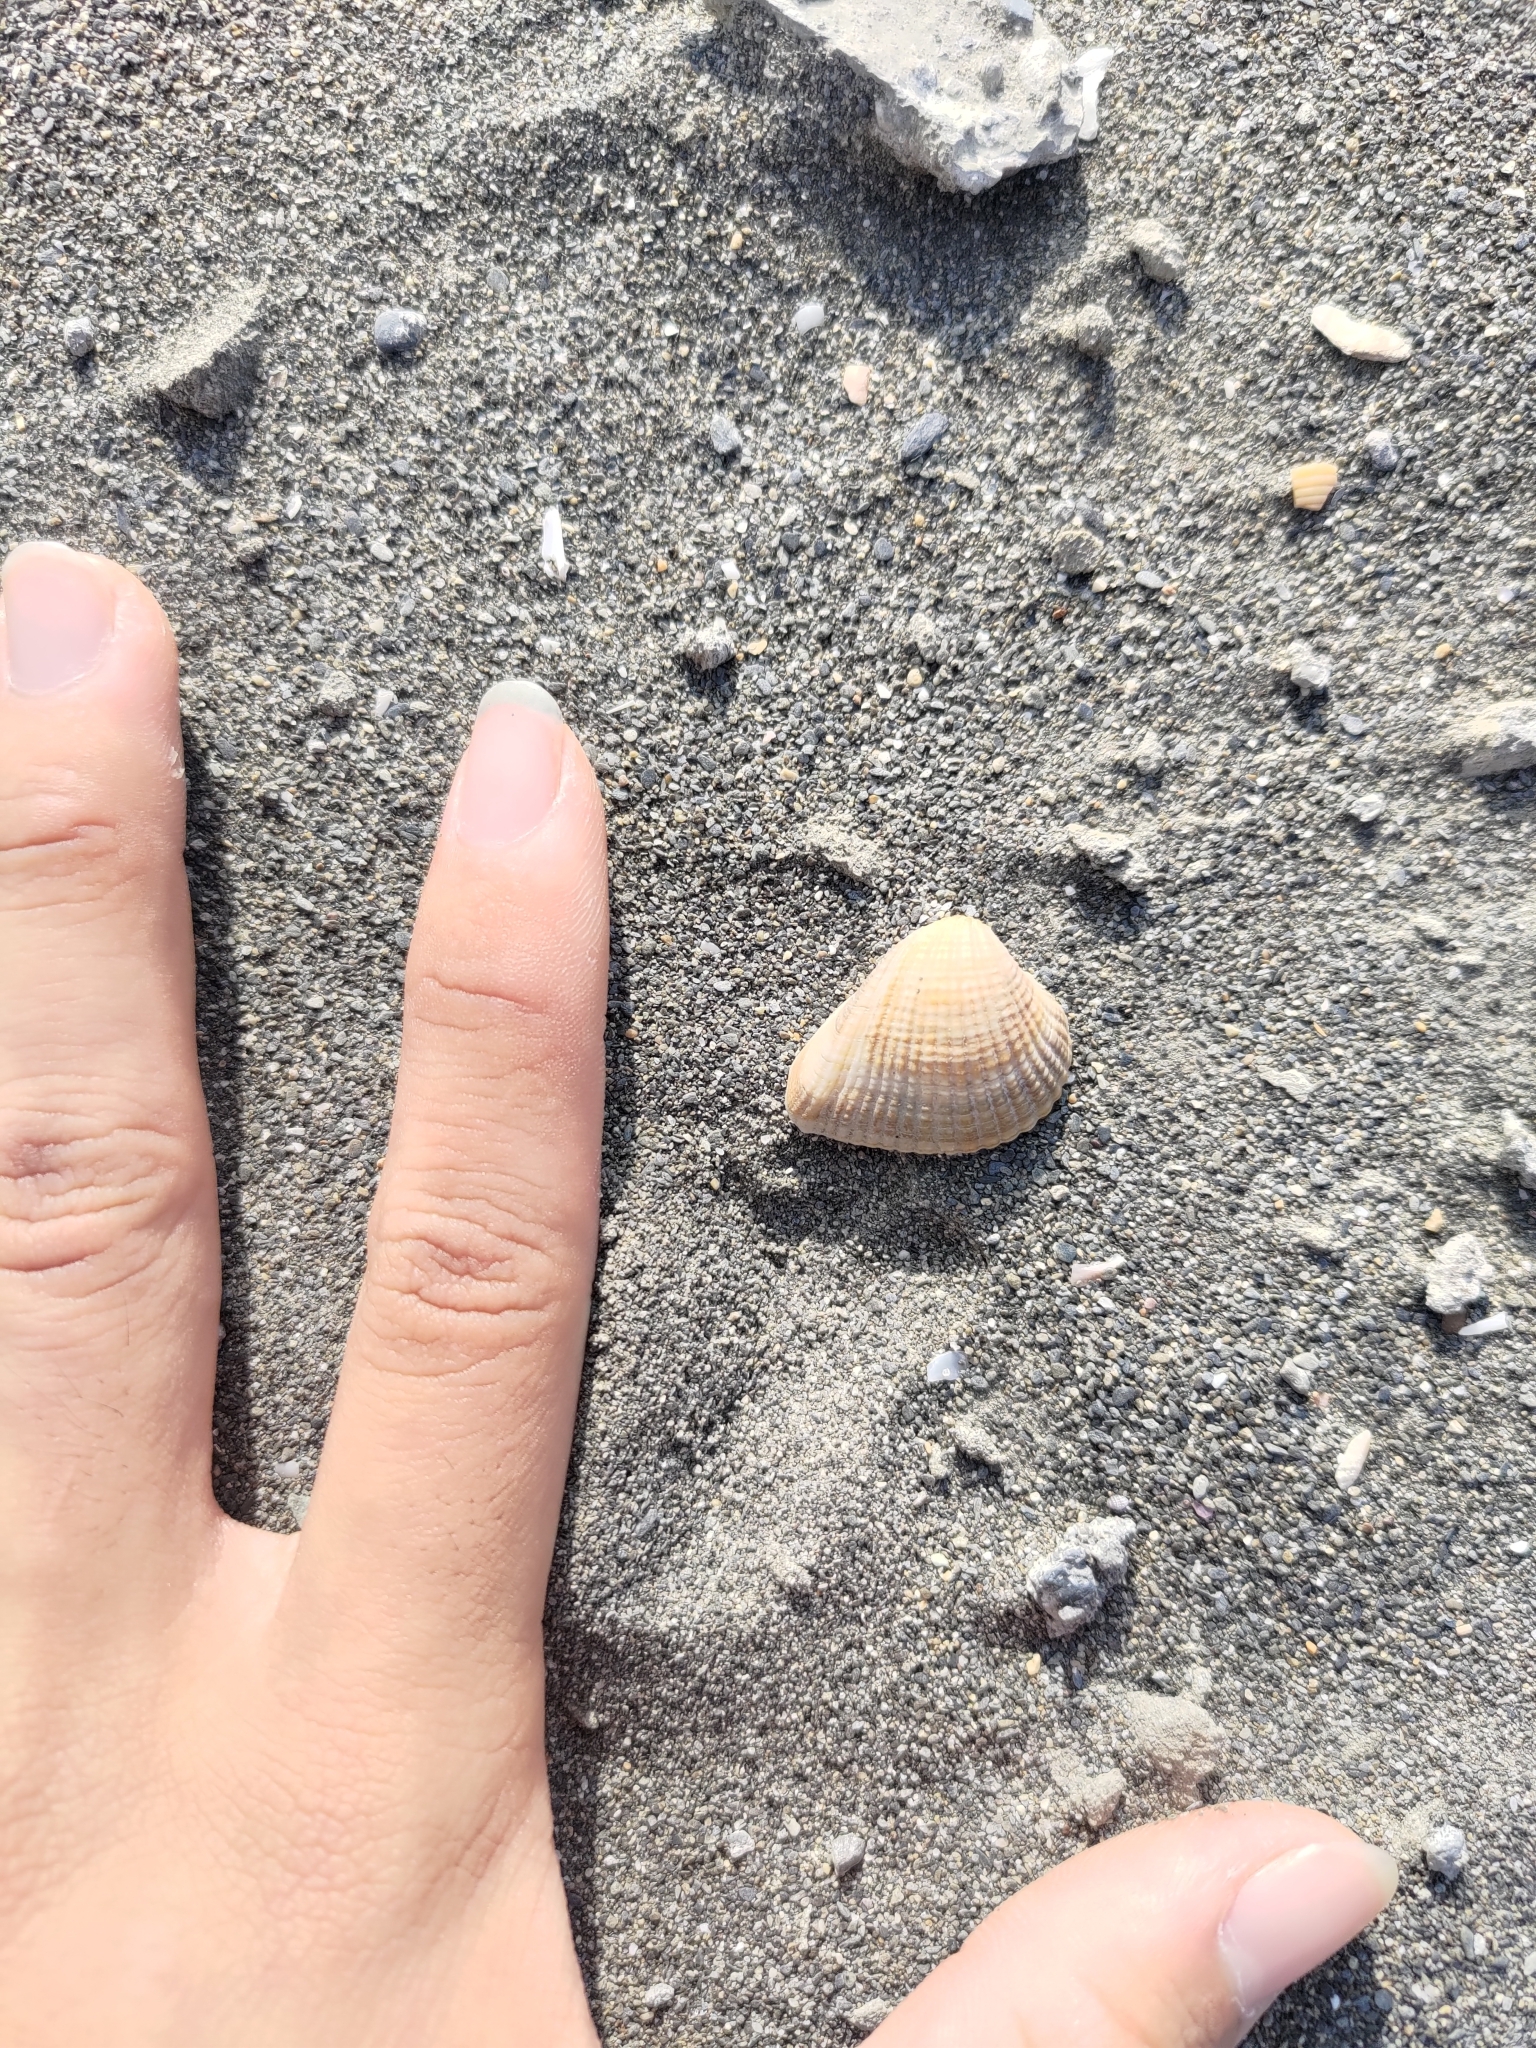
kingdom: Animalia
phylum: Mollusca
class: Bivalvia
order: Venerida
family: Veneridae
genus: Anomalodiscus
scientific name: Anomalodiscus squamosus
